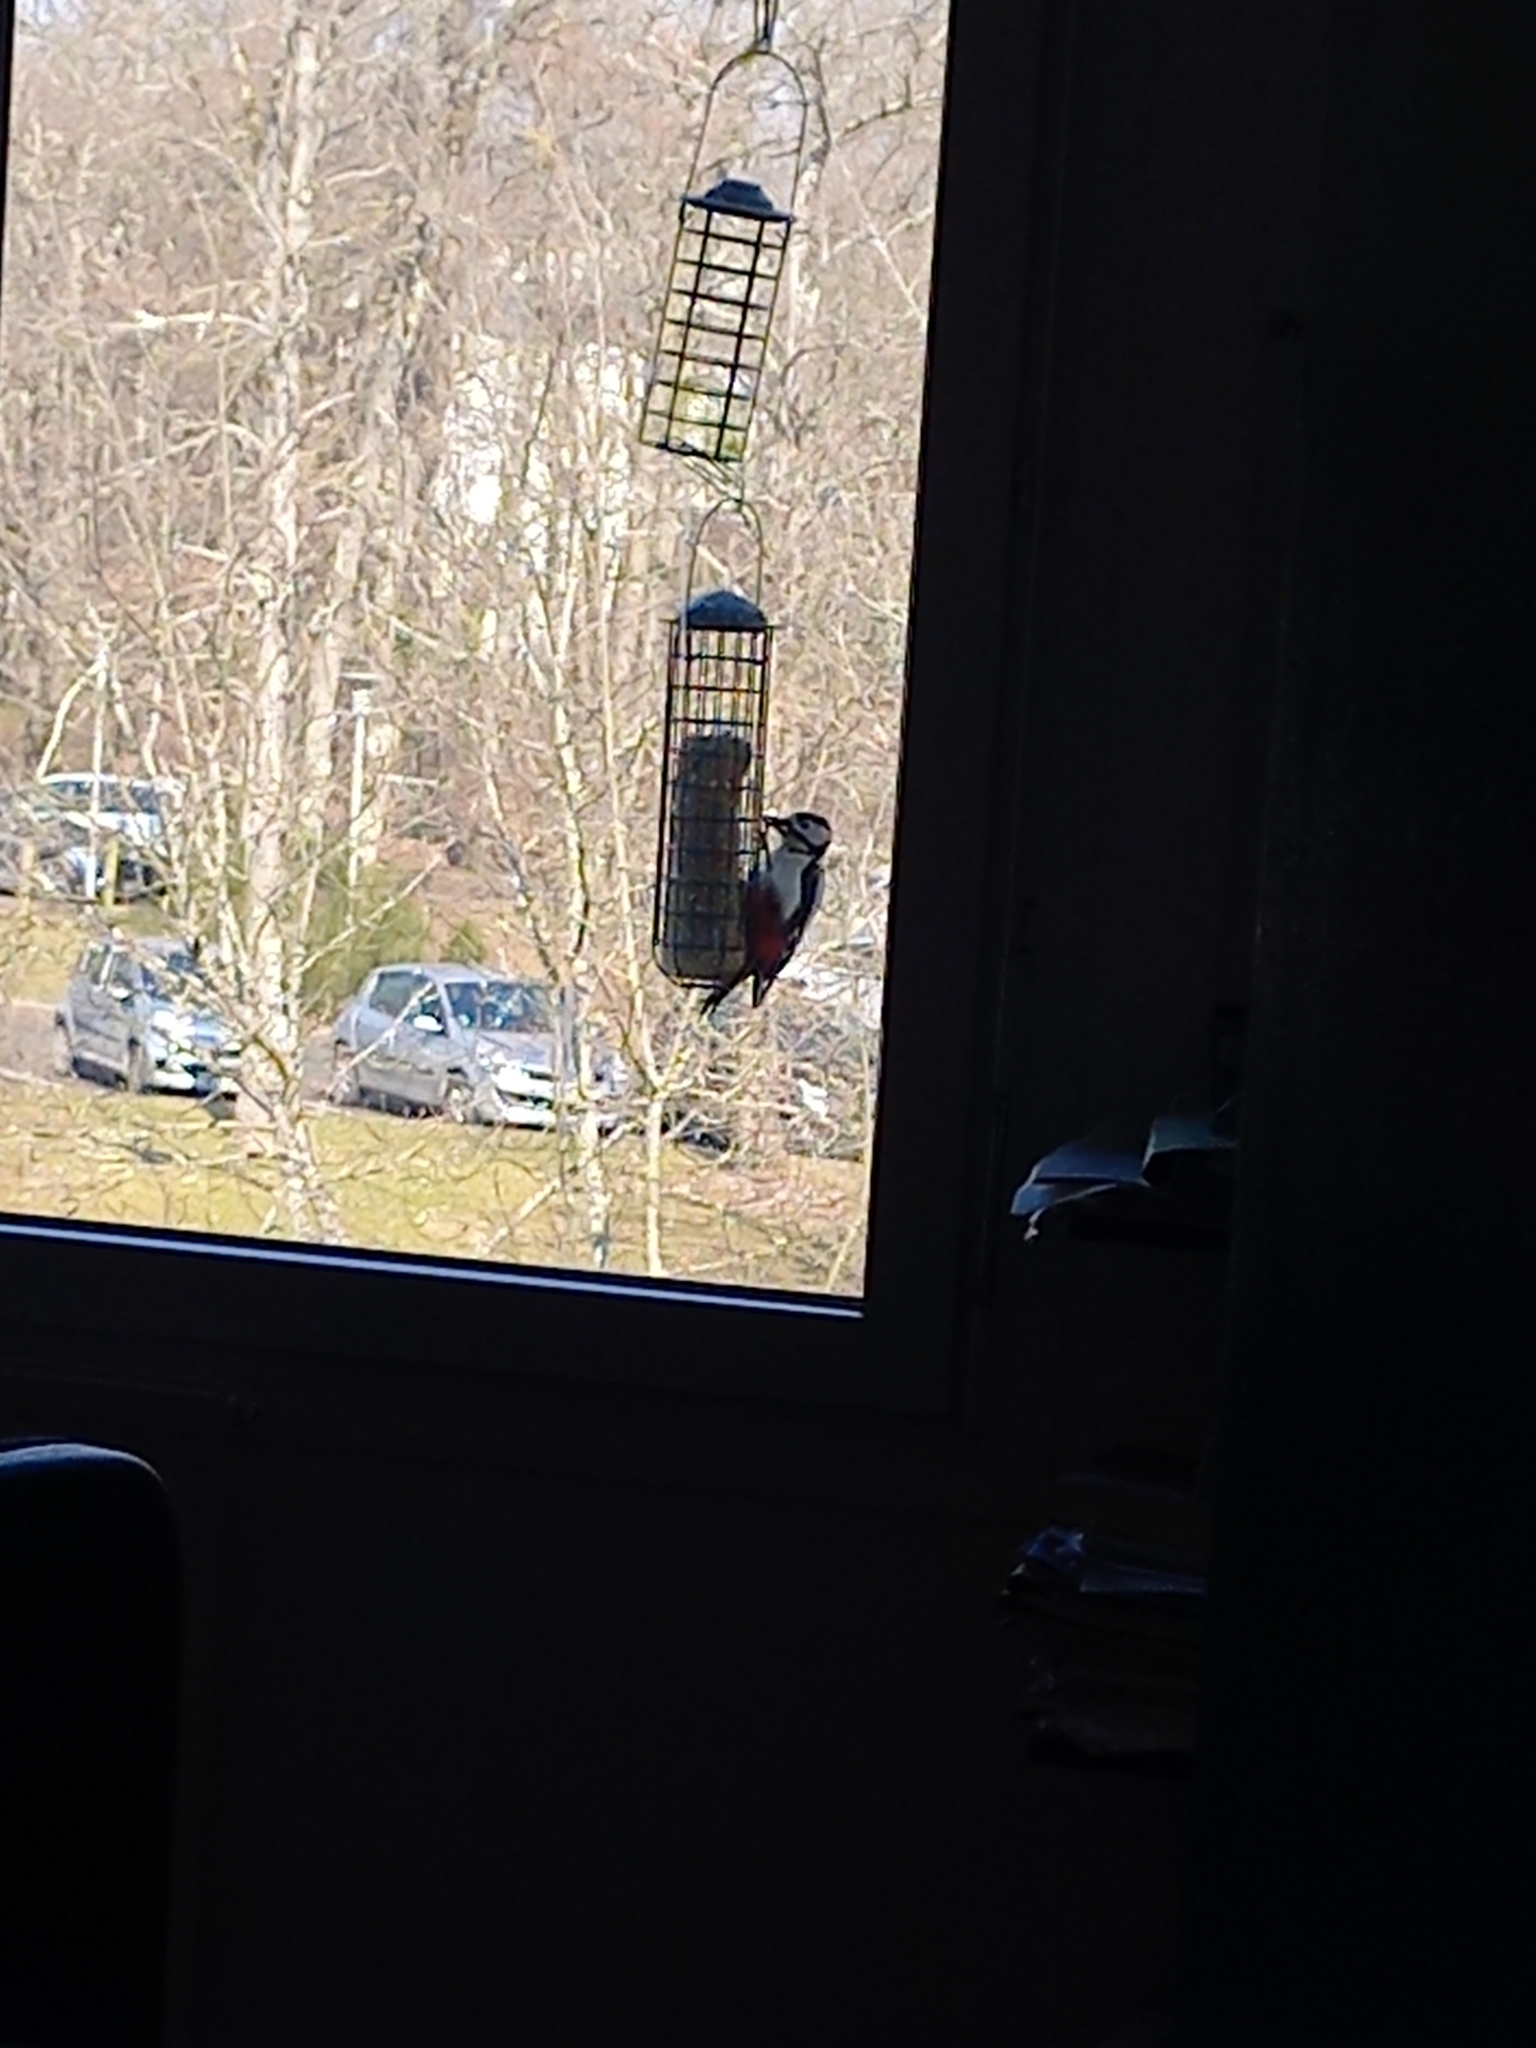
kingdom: Animalia
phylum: Chordata
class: Aves
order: Piciformes
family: Picidae
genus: Dendrocopos
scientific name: Dendrocopos major
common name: Great spotted woodpecker
